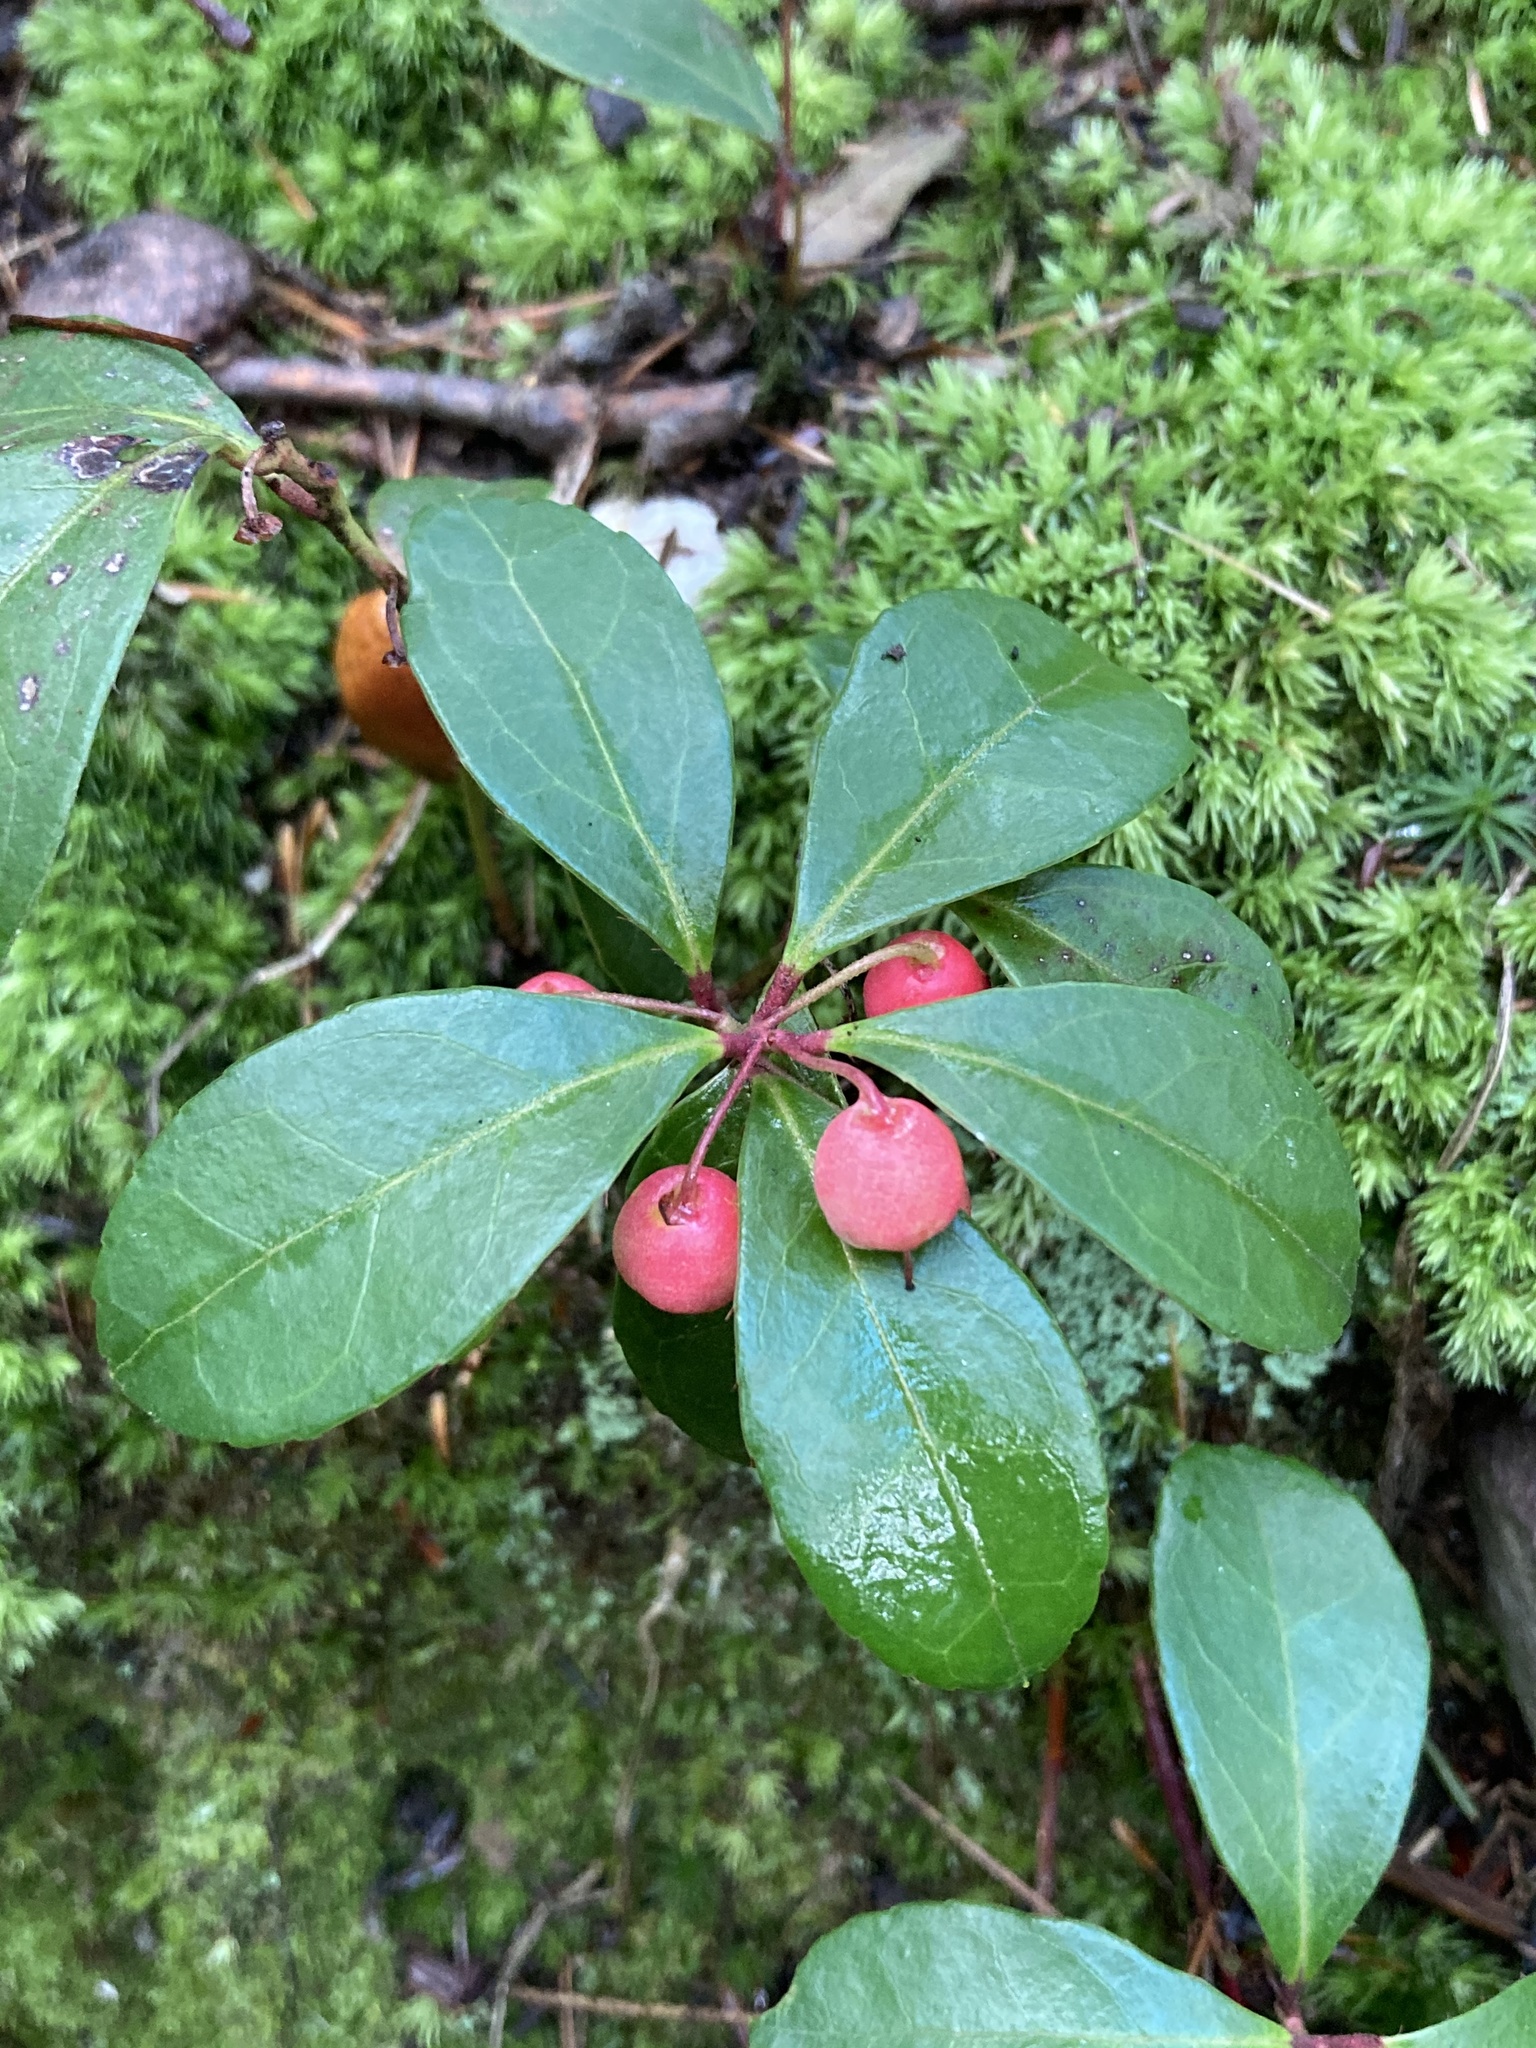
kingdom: Plantae
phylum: Tracheophyta
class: Magnoliopsida
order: Ericales
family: Ericaceae
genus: Gaultheria
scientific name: Gaultheria procumbens
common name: Checkerberry
